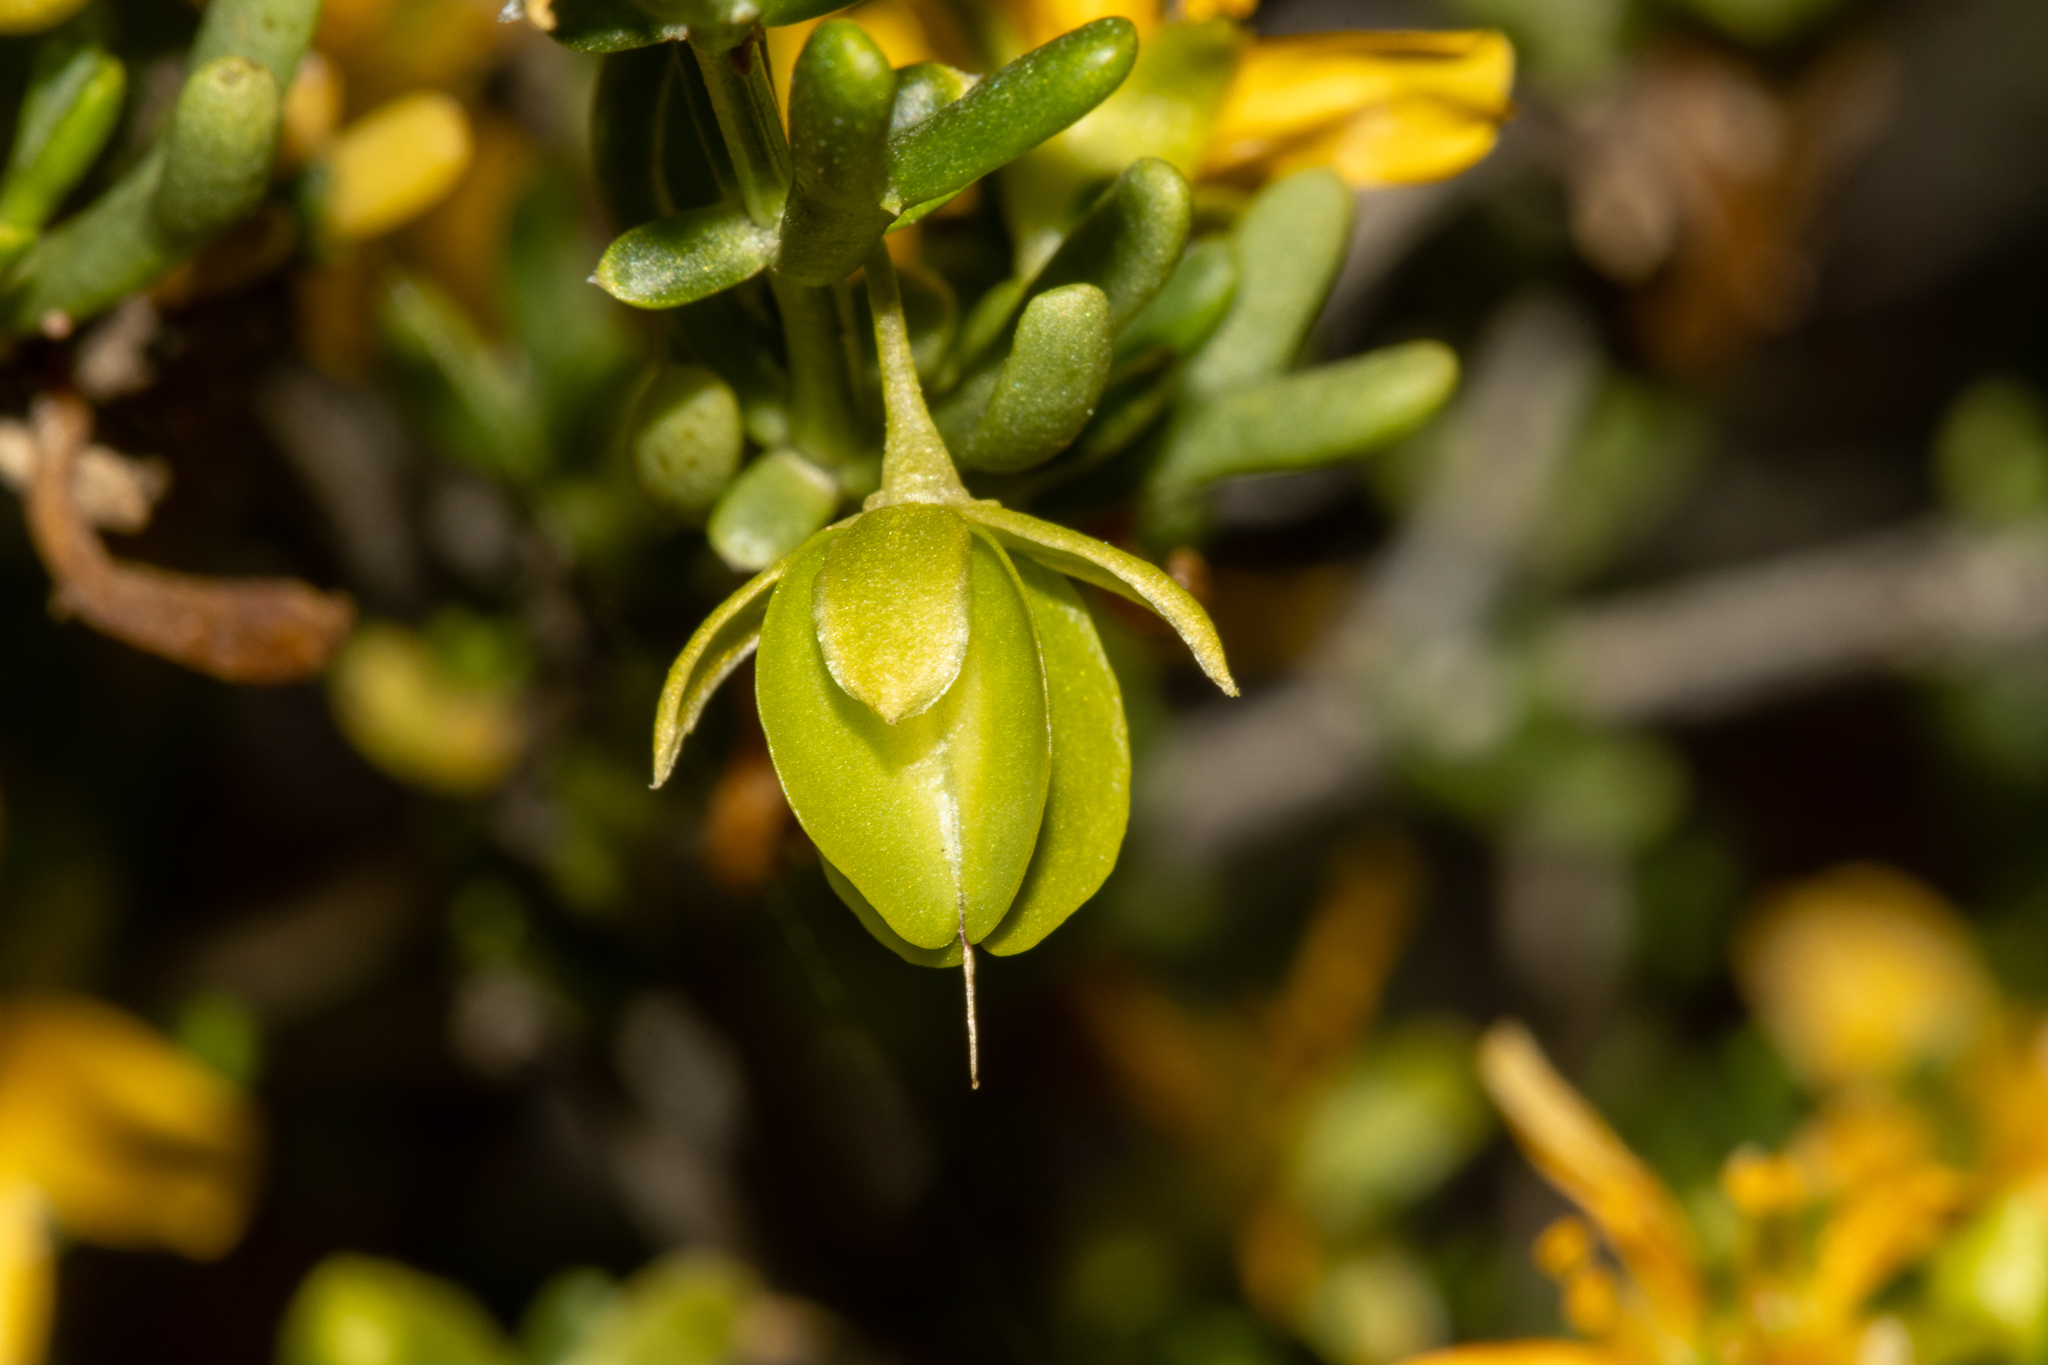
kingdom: Plantae
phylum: Tracheophyta
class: Magnoliopsida
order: Zygophyllales
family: Zygophyllaceae
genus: Roepera
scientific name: Roepera aurantiaca
